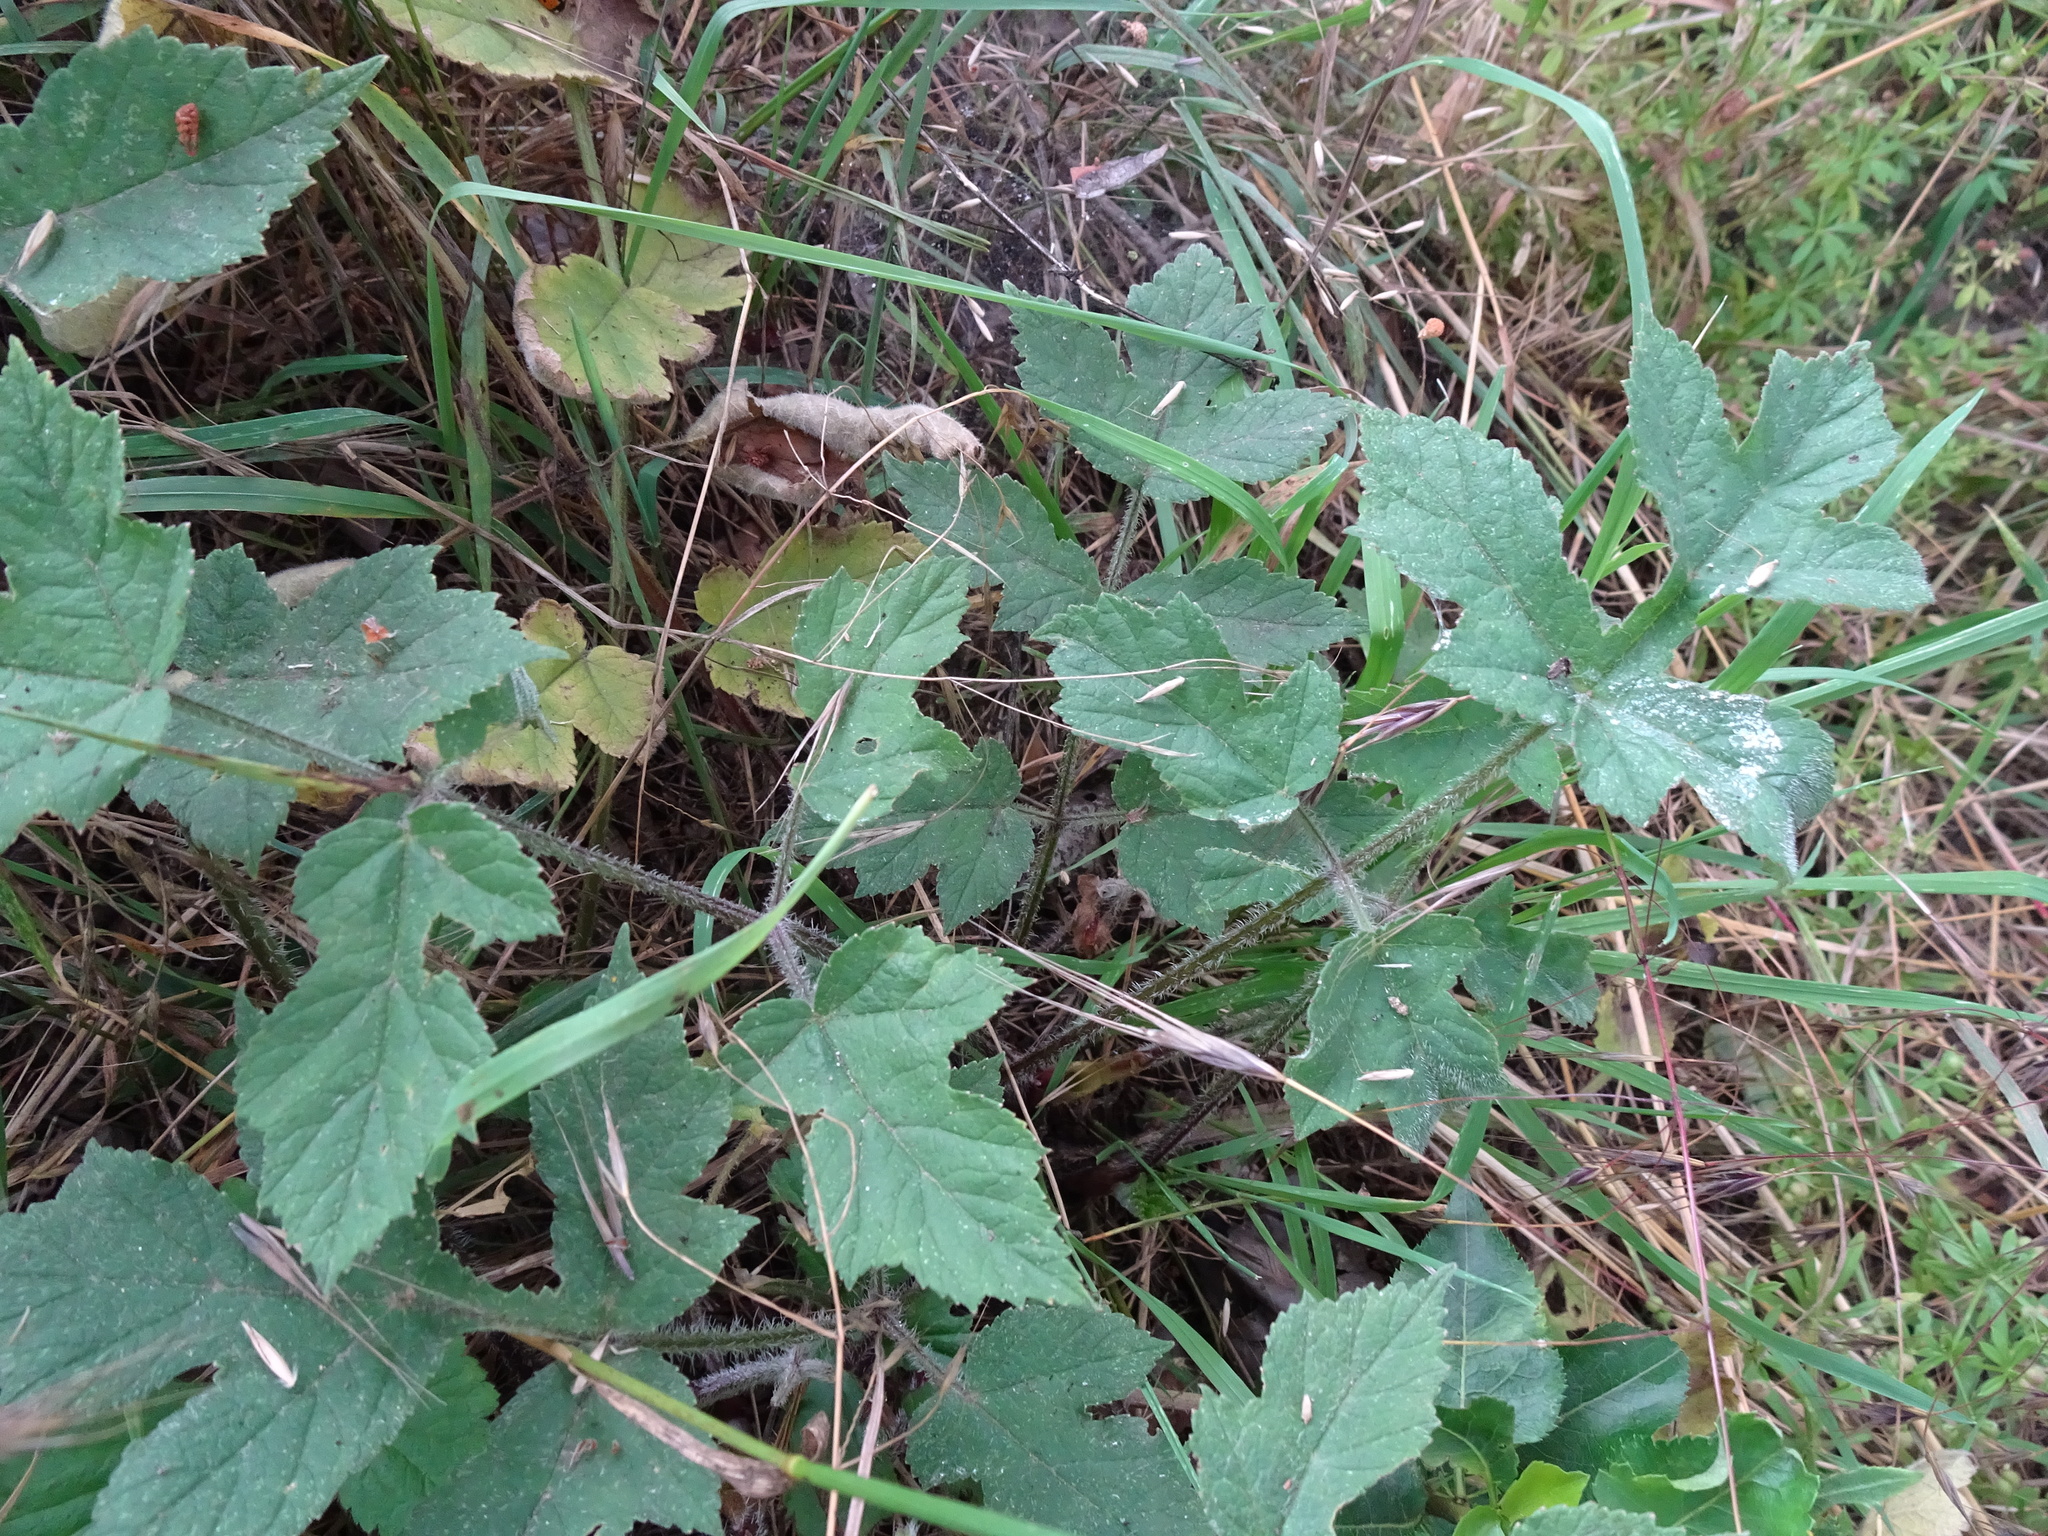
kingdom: Plantae
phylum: Tracheophyta
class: Magnoliopsida
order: Apiales
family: Apiaceae
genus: Heracleum
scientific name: Heracleum sphondylium
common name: Hogweed
